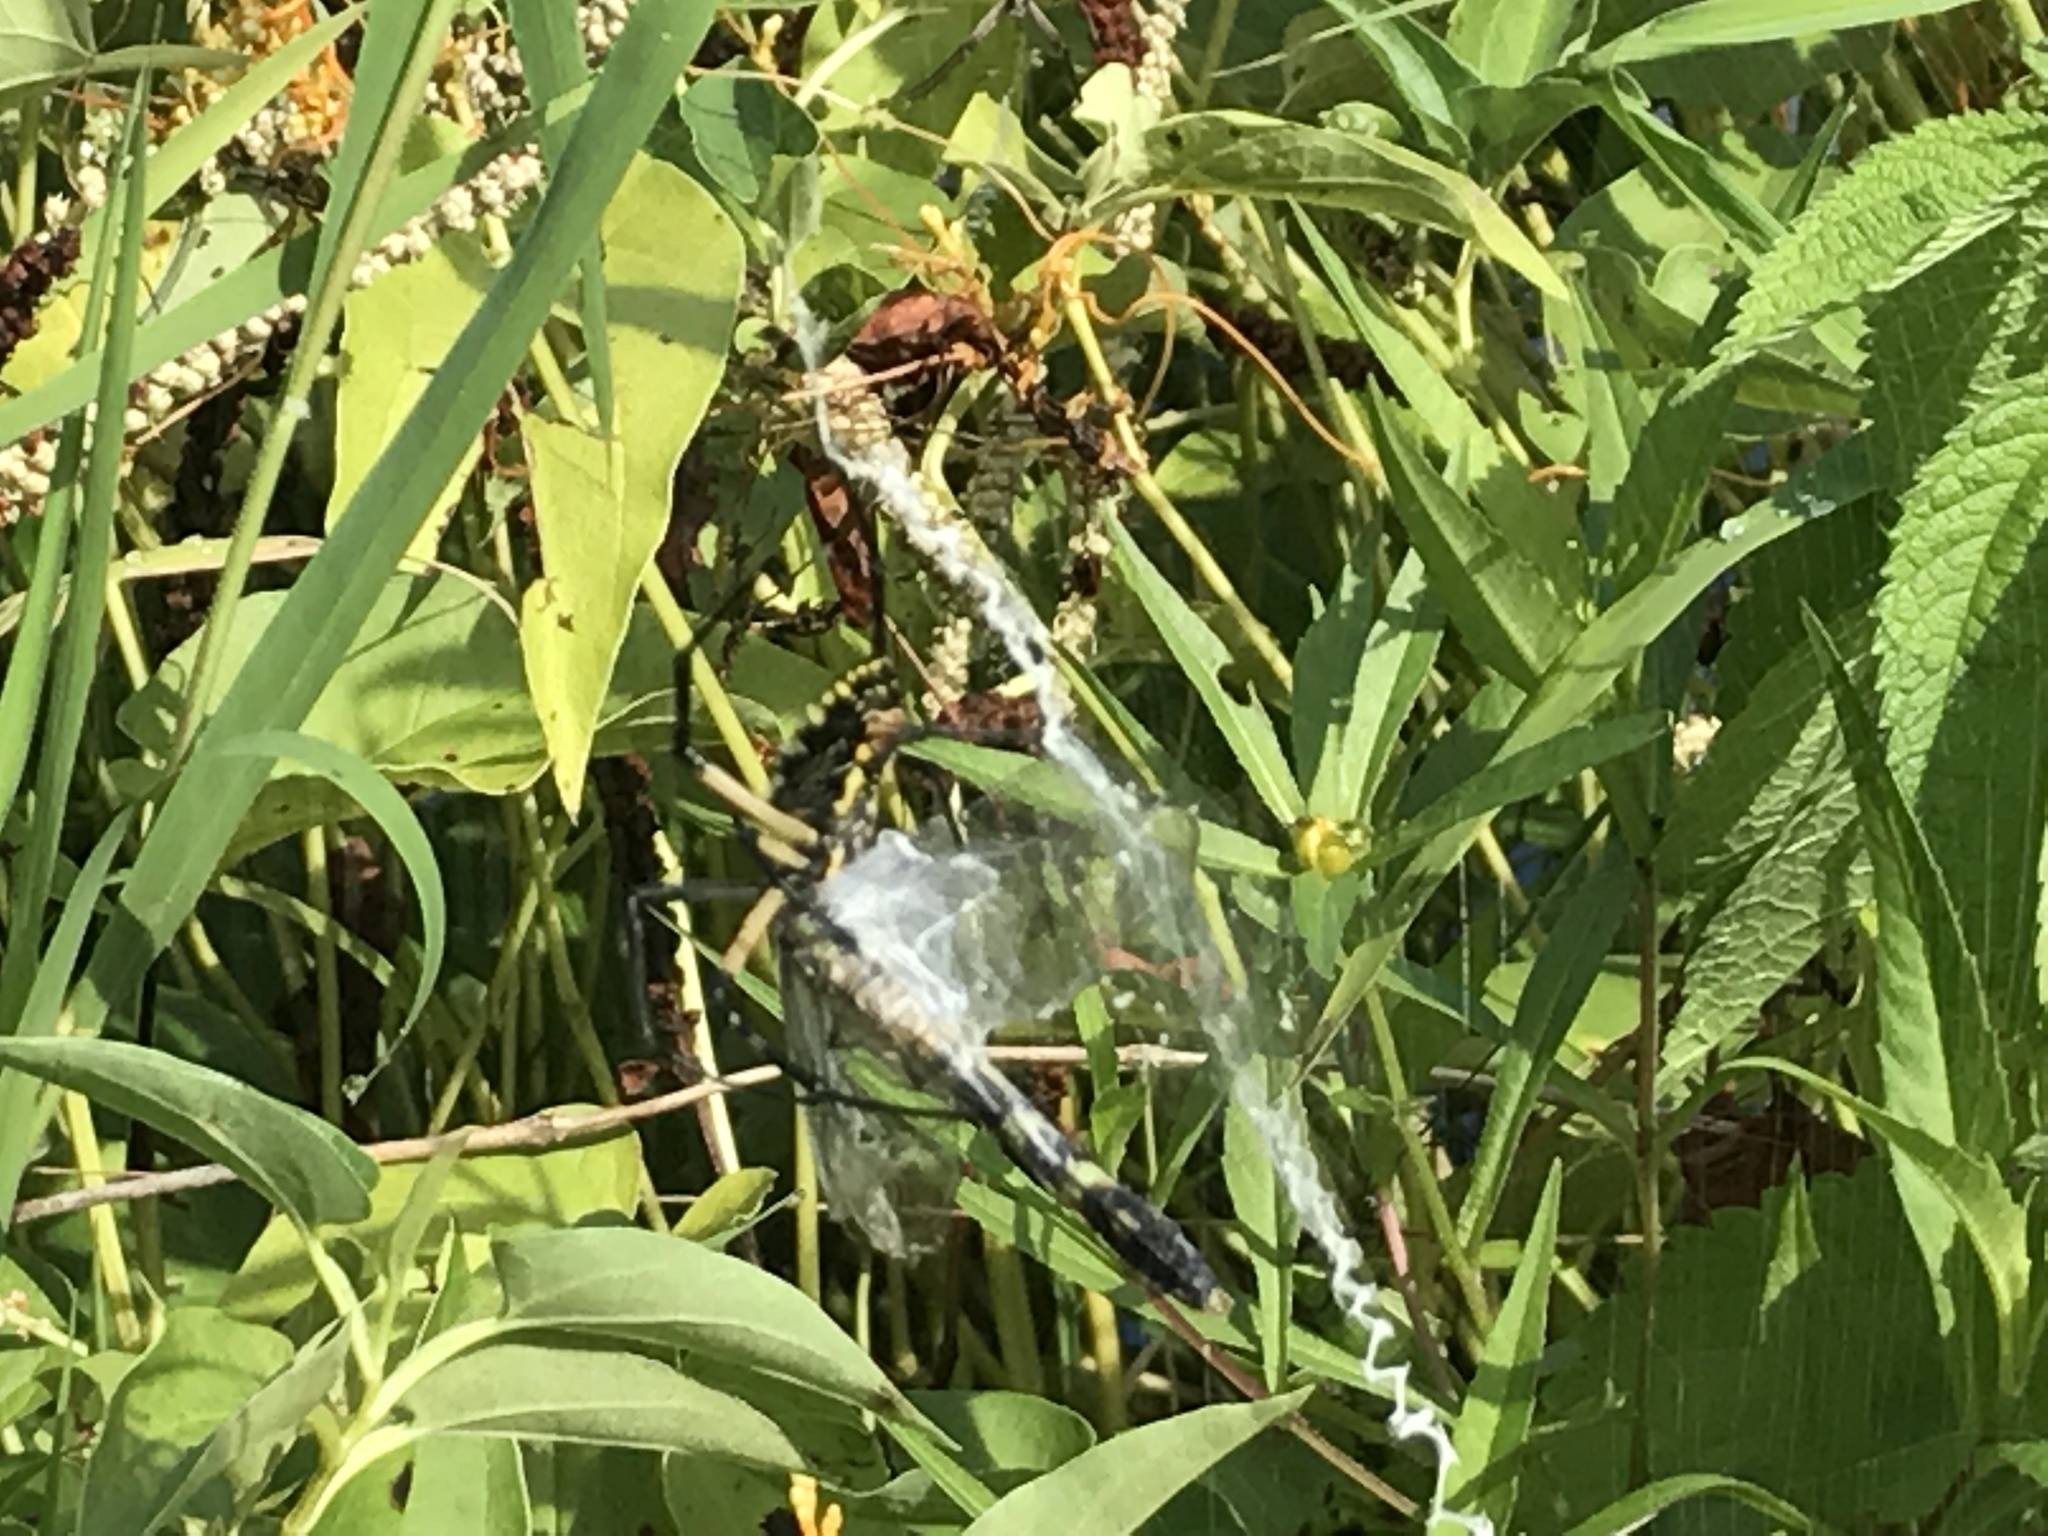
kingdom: Animalia
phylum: Arthropoda
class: Arachnida
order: Araneae
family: Araneidae
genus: Argiope
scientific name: Argiope aurantia
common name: Orb weavers
